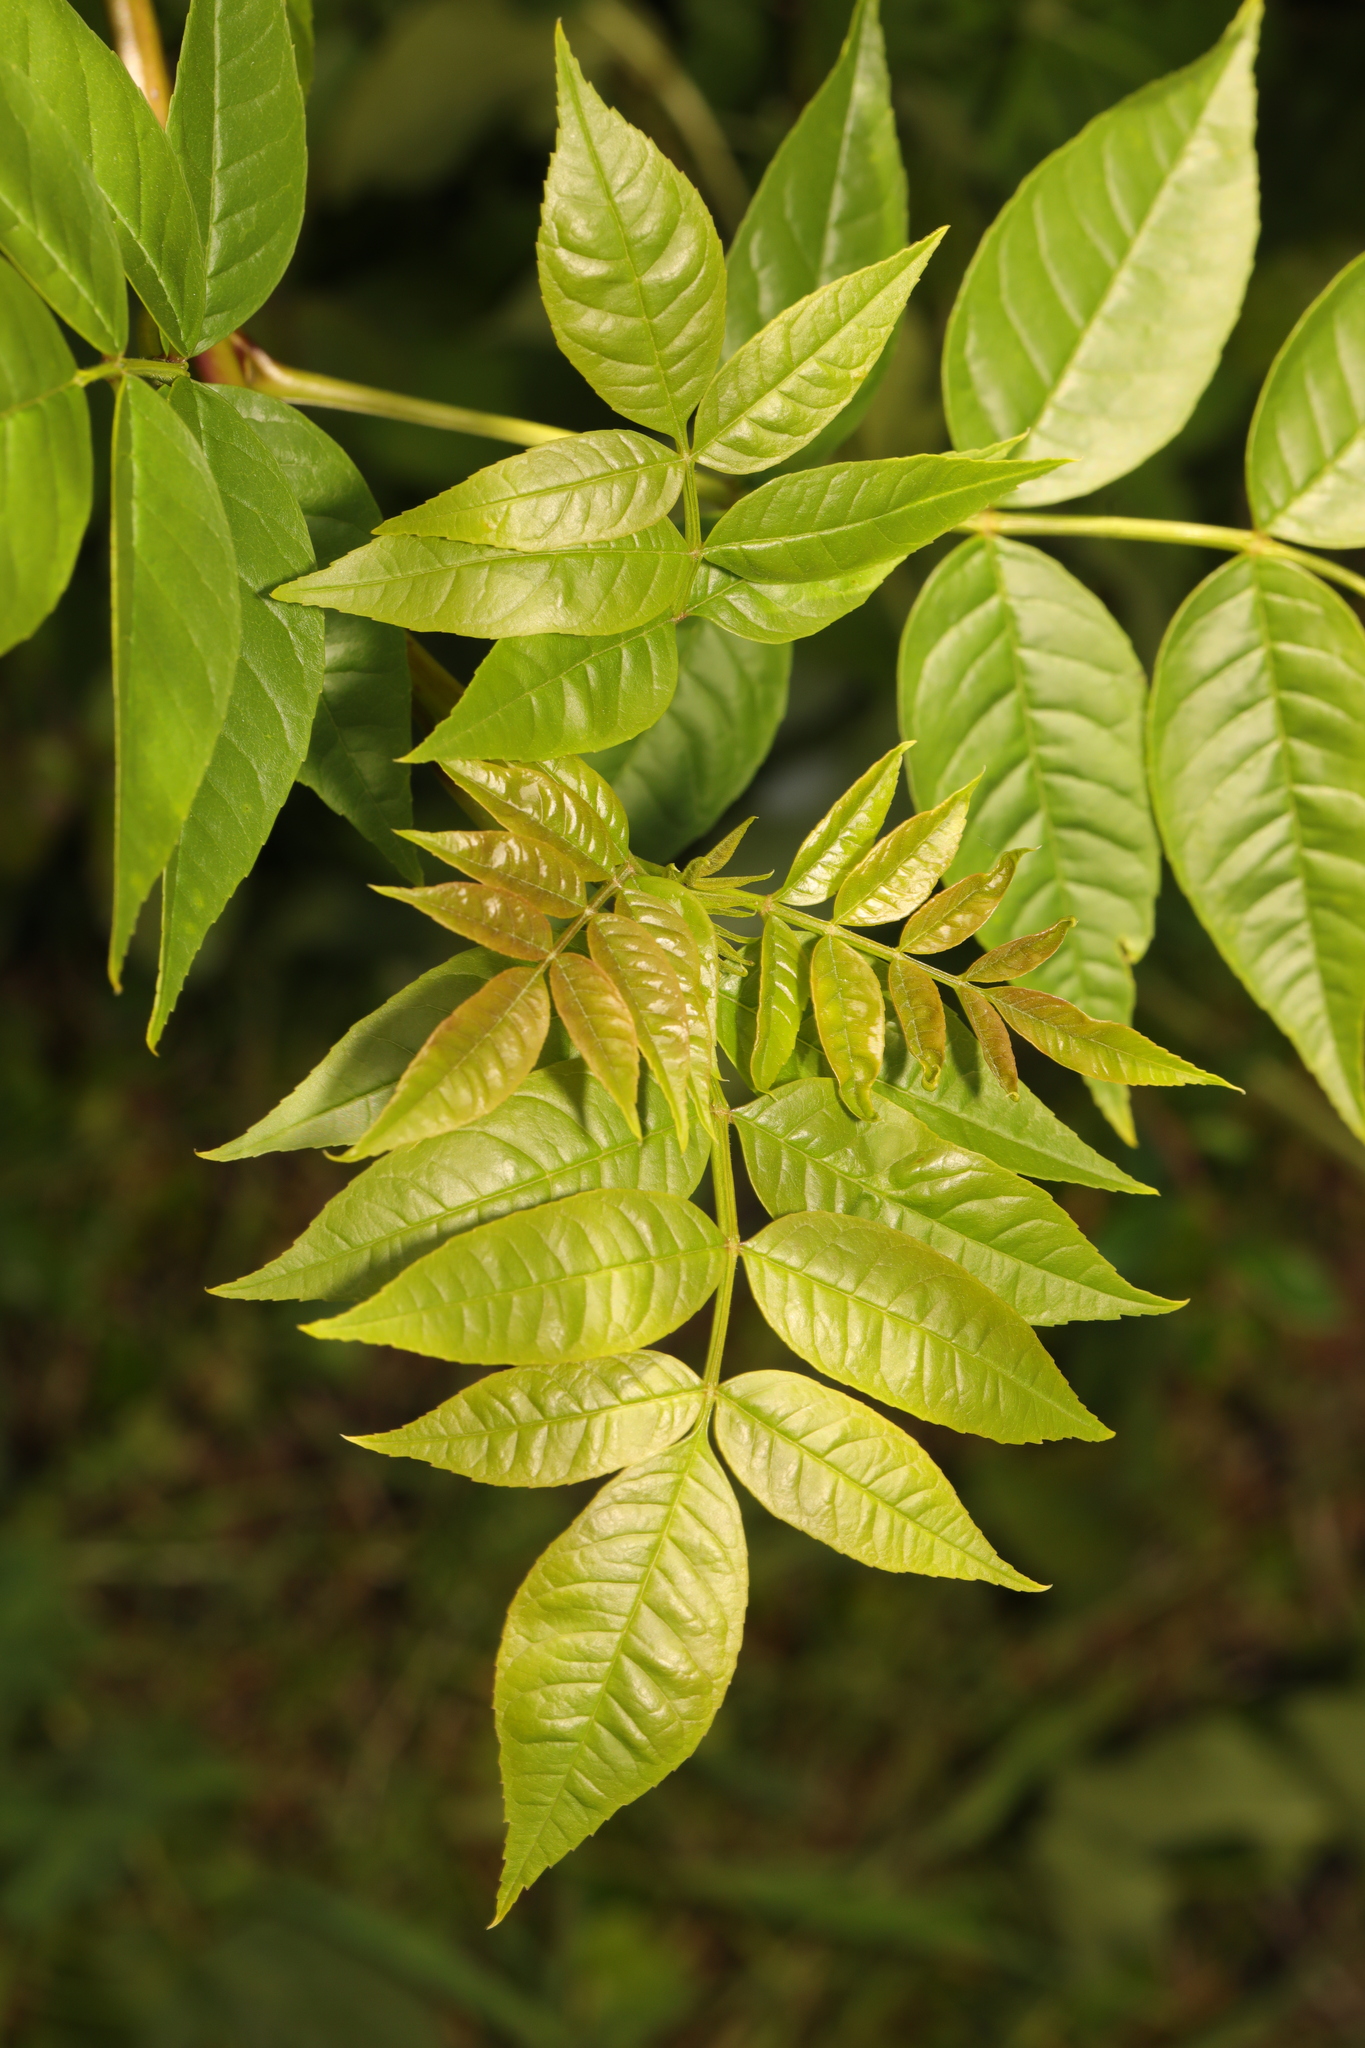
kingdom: Plantae
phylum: Tracheophyta
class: Magnoliopsida
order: Lamiales
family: Oleaceae
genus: Fraxinus
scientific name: Fraxinus excelsior
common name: European ash
